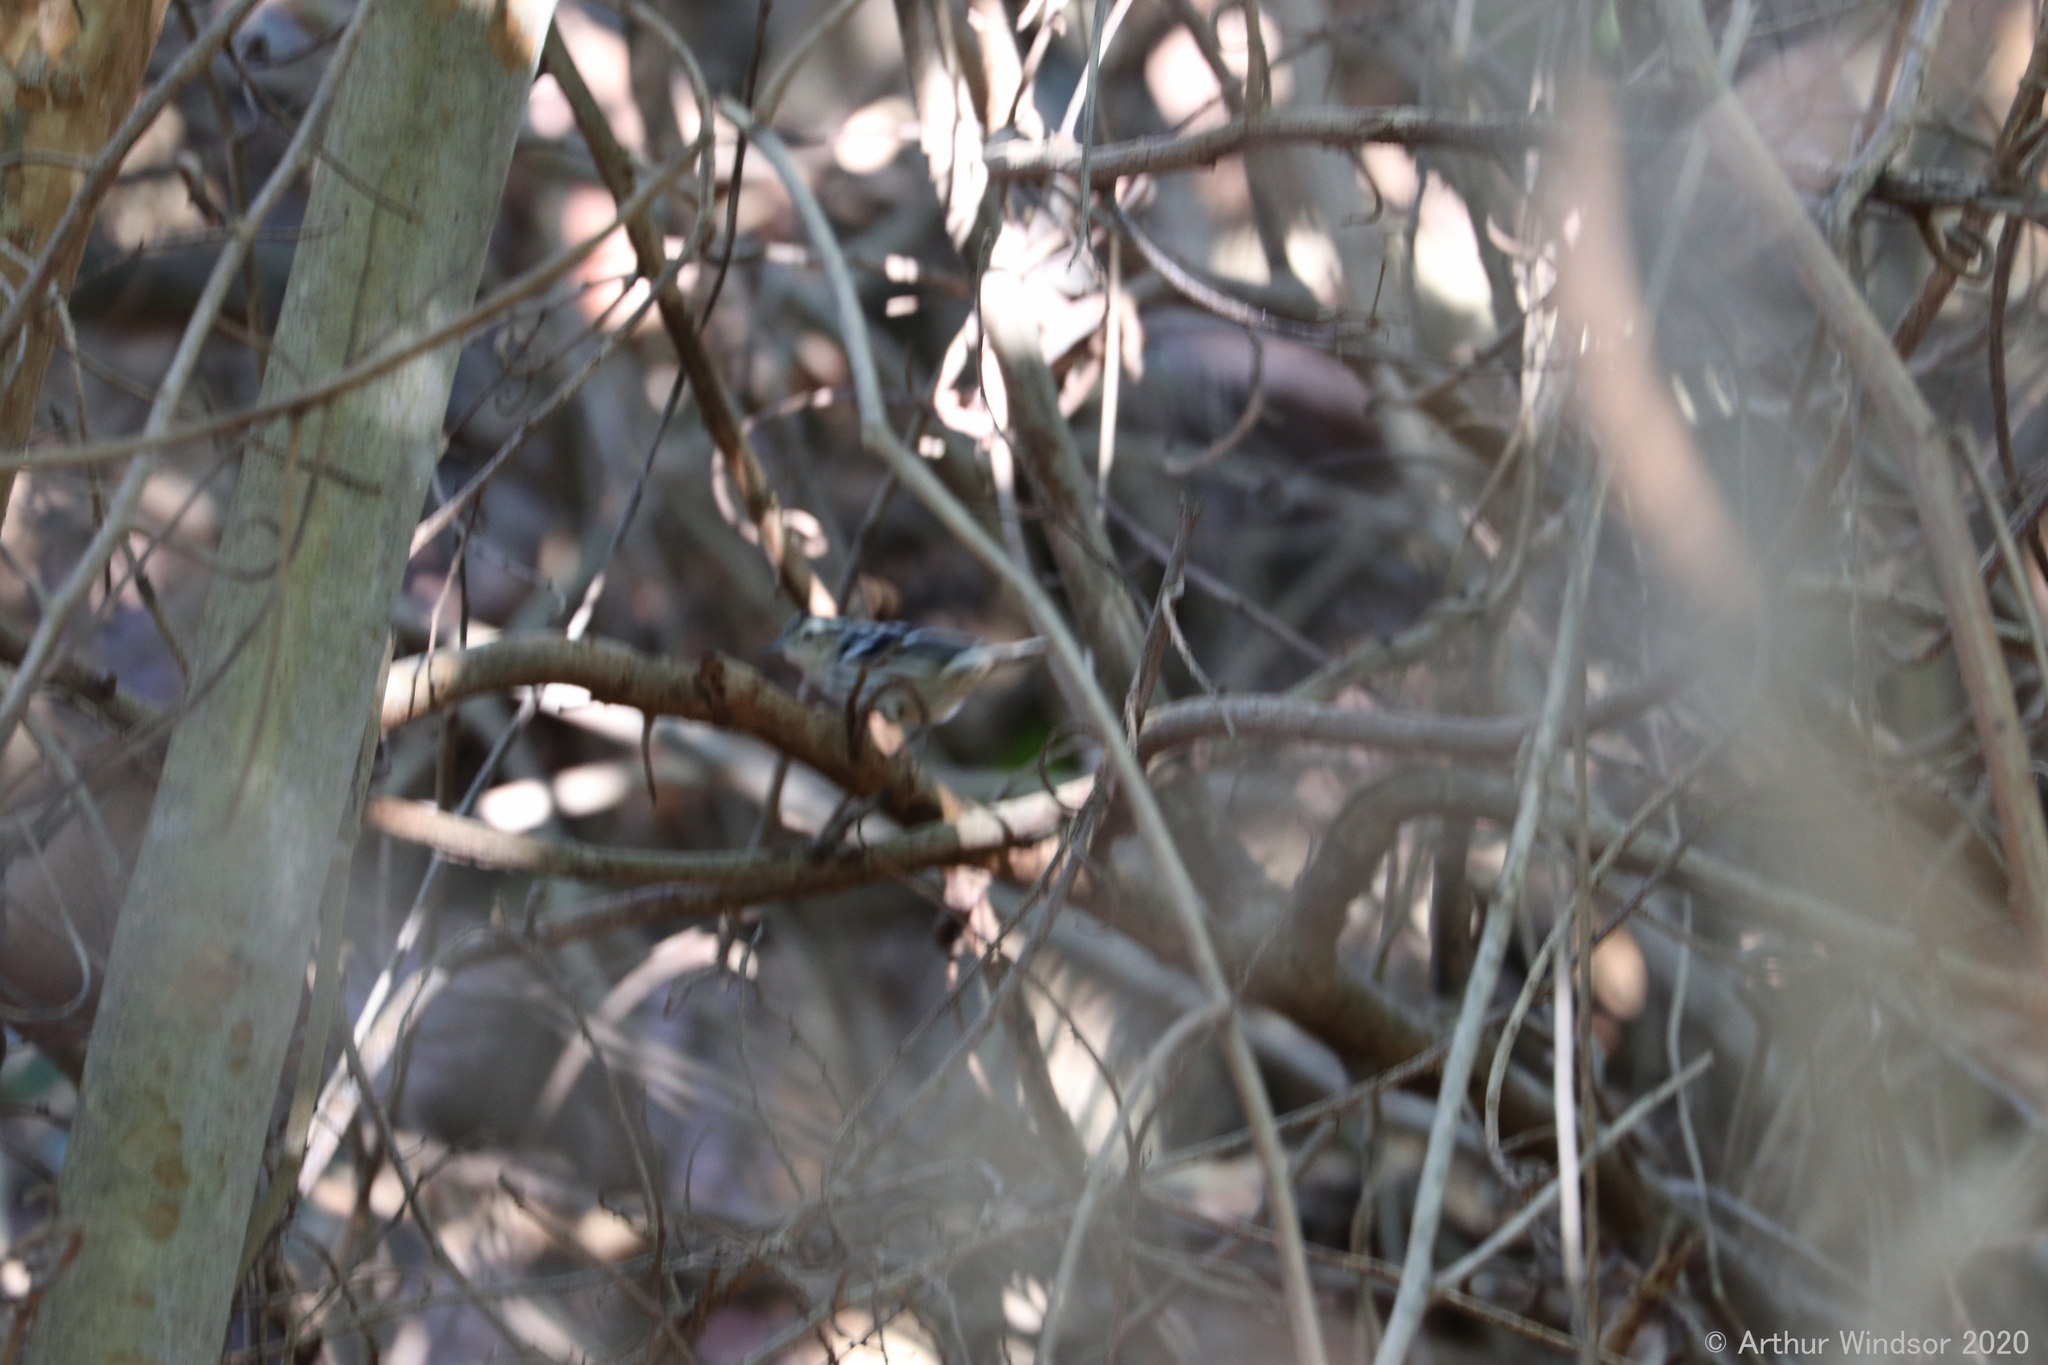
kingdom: Animalia
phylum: Chordata
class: Aves
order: Passeriformes
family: Parulidae
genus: Mniotilta
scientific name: Mniotilta varia
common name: Black-and-white warbler
